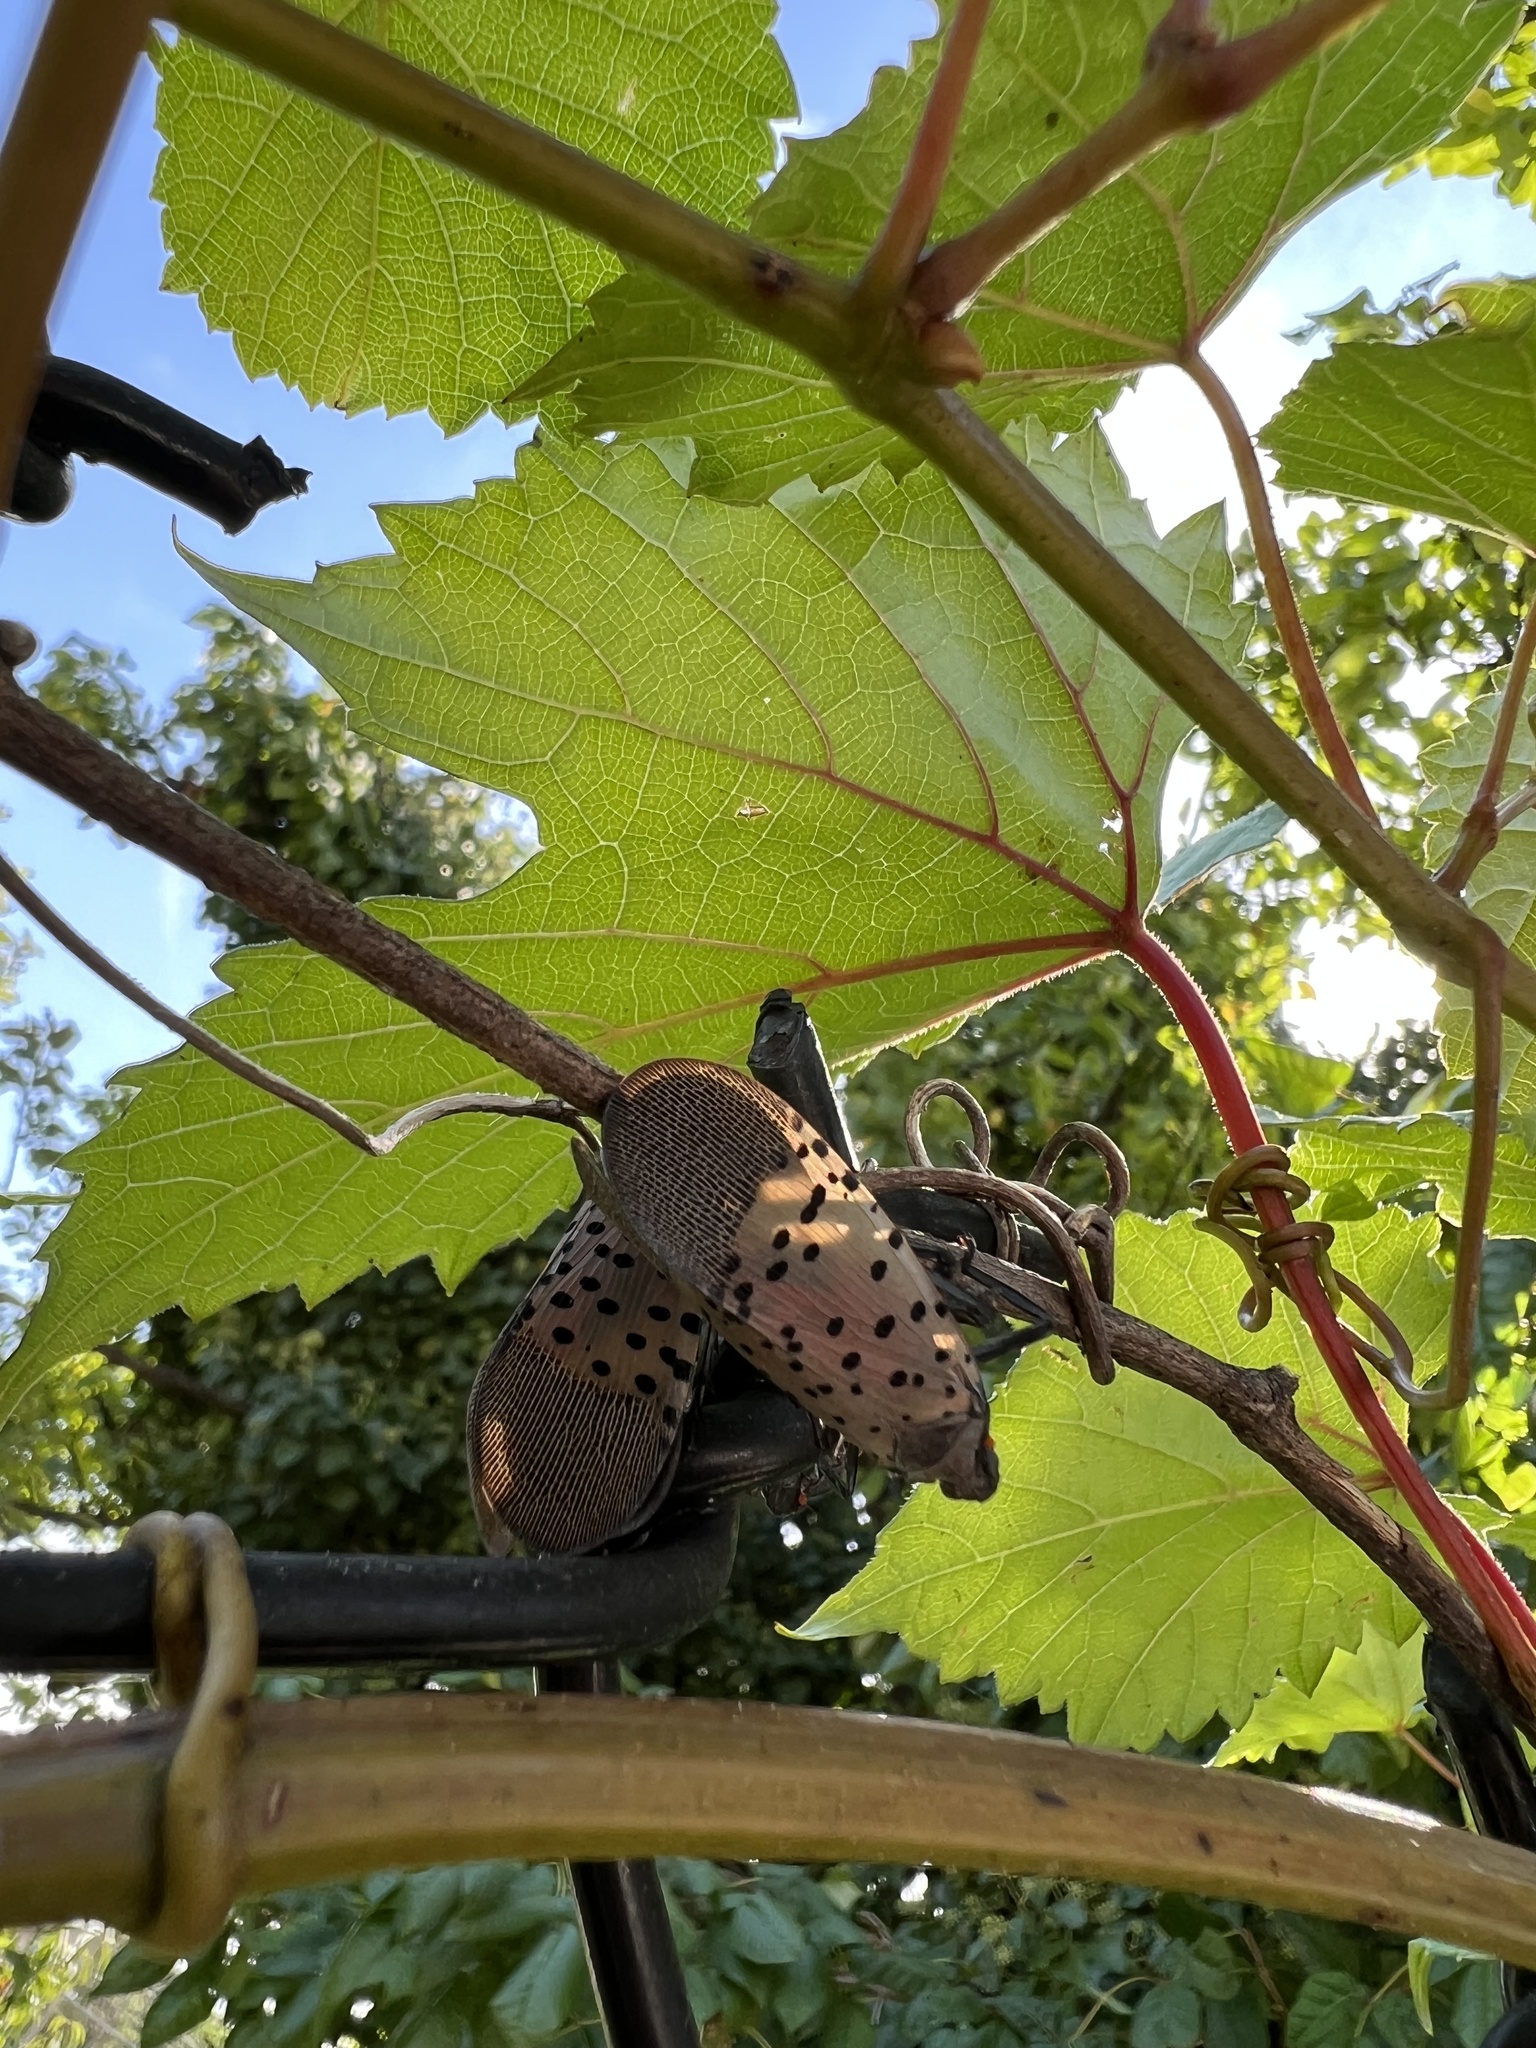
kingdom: Animalia
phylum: Arthropoda
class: Insecta
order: Hemiptera
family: Fulgoridae
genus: Lycorma
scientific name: Lycorma delicatula
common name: Spotted lanternfly
